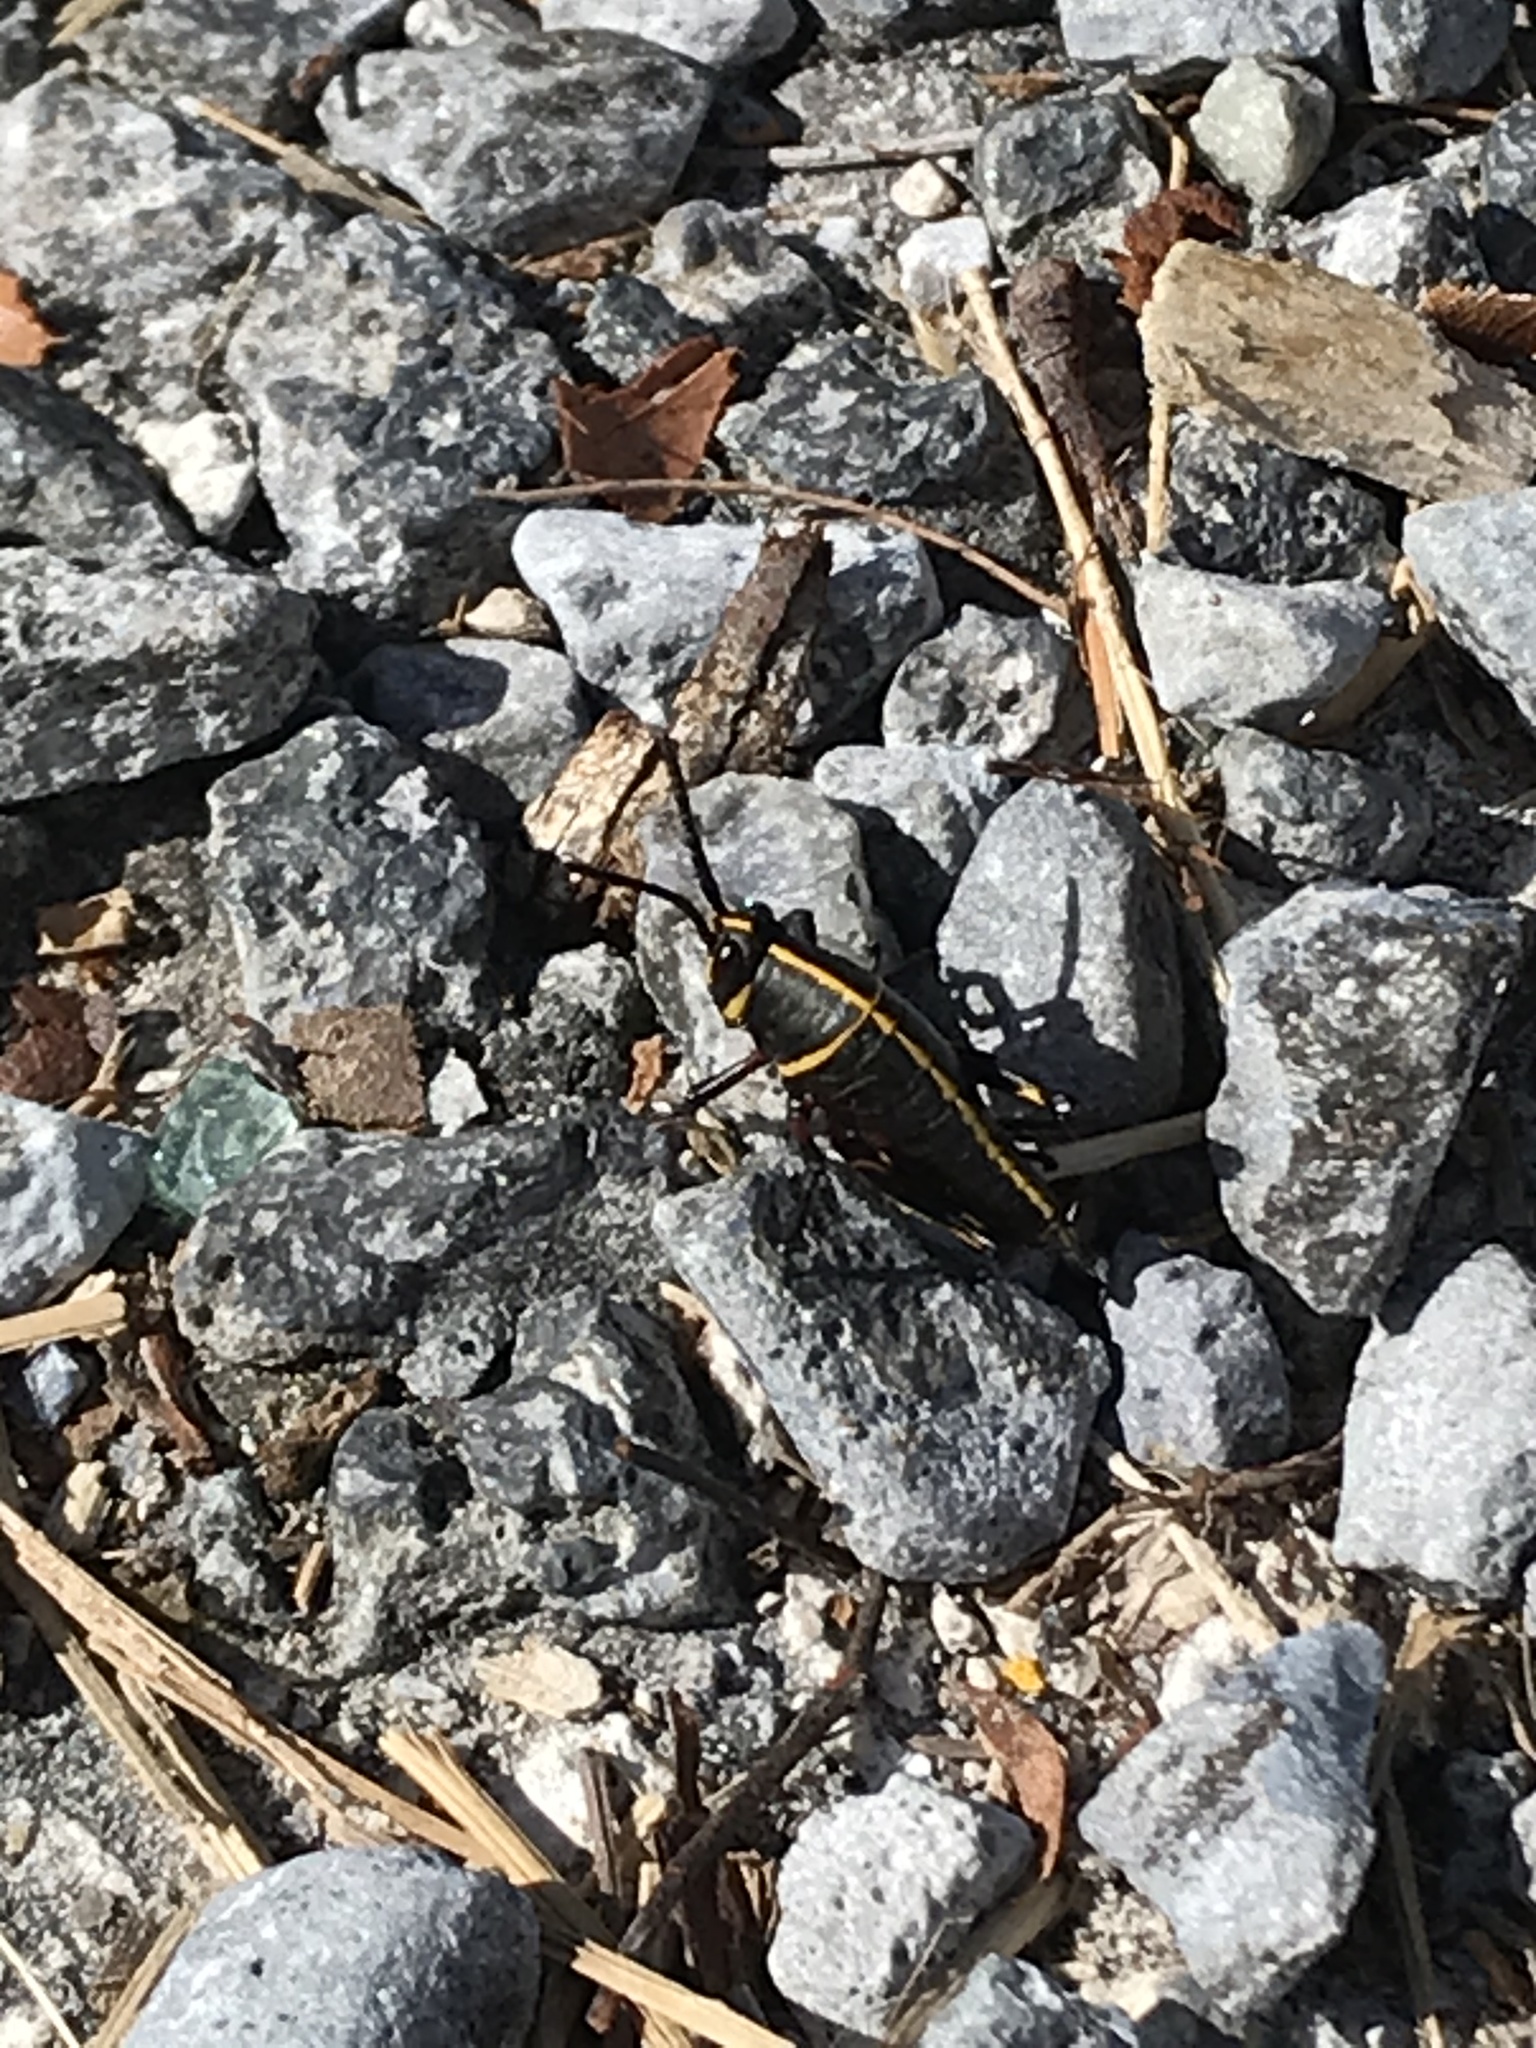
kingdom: Animalia
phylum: Arthropoda
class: Insecta
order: Orthoptera
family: Romaleidae
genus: Romalea
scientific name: Romalea microptera
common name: Eastern lubber grasshopper
